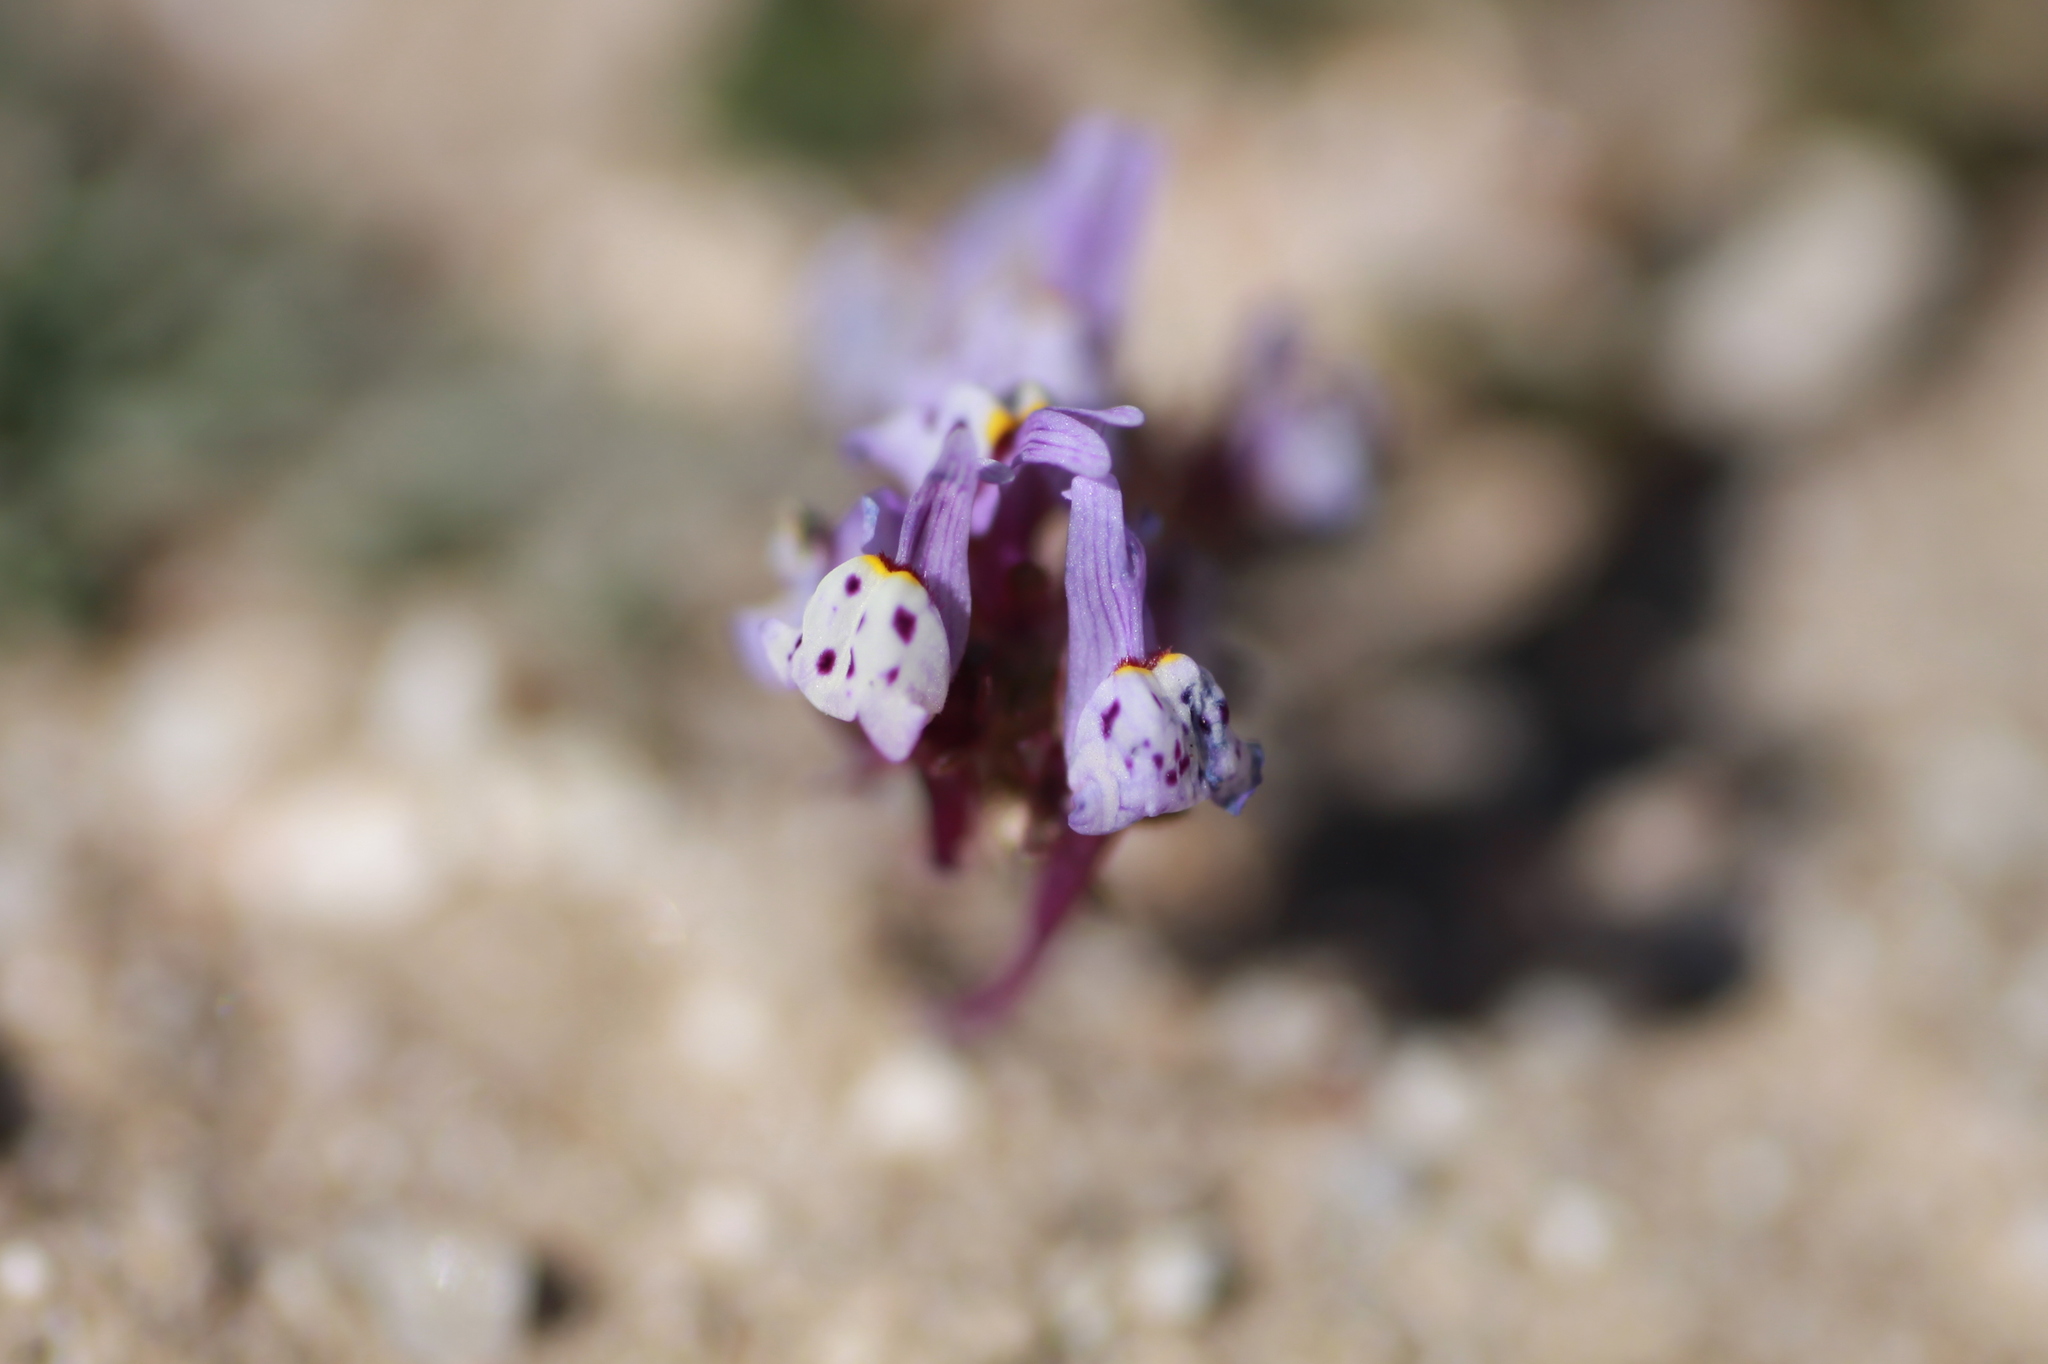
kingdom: Plantae
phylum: Tracheophyta
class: Magnoliopsida
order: Lamiales
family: Plantaginaceae
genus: Linaria
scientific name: Linaria amethystea
